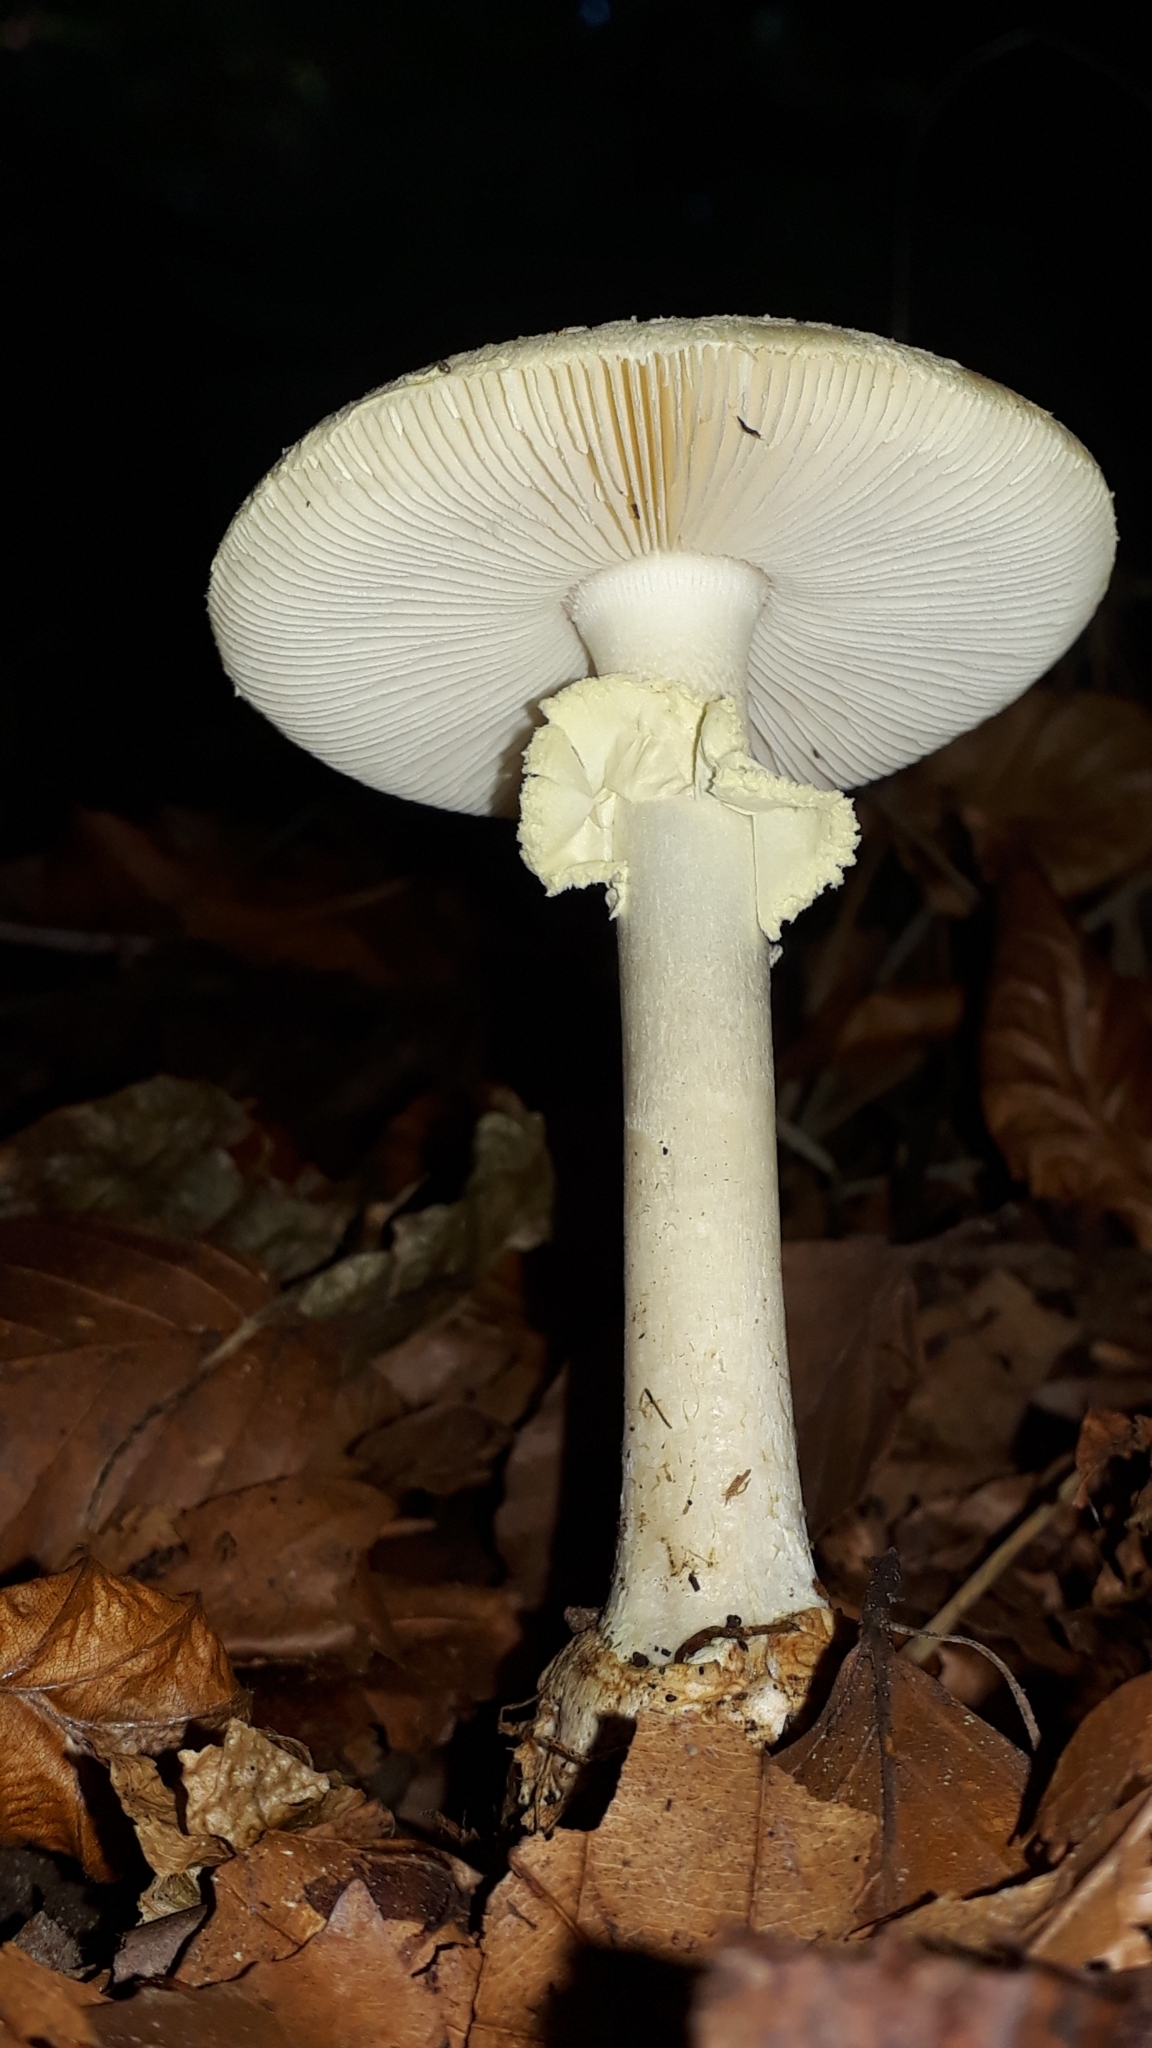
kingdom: Fungi
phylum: Basidiomycota
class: Agaricomycetes
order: Agaricales
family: Amanitaceae
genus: Amanita
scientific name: Amanita citrina
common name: False death-cap
